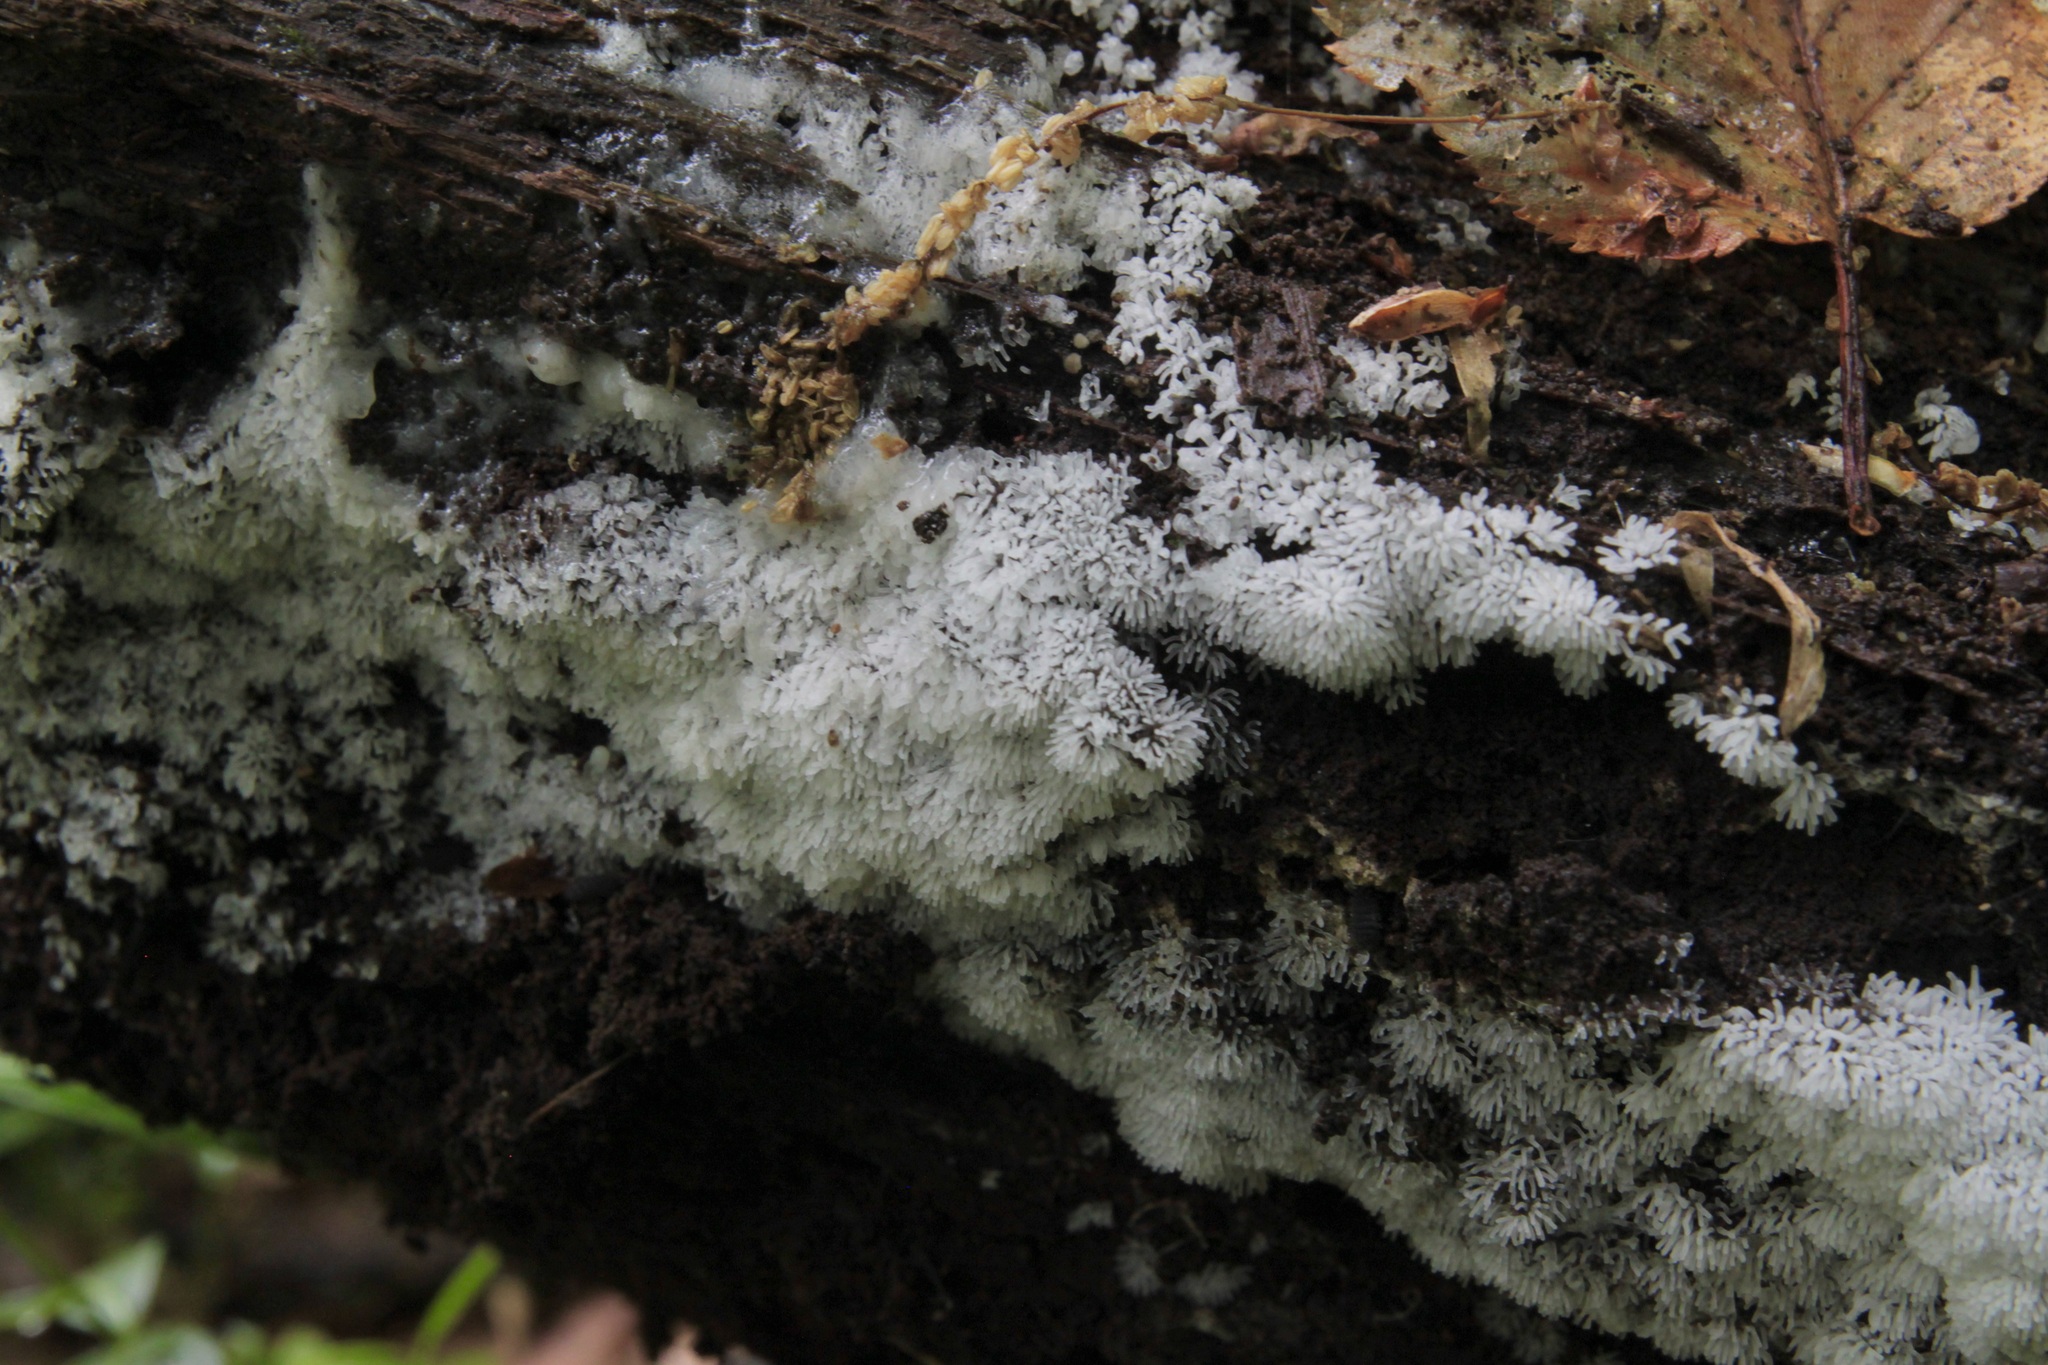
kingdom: Protozoa
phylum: Mycetozoa
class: Protosteliomycetes
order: Ceratiomyxales
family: Ceratiomyxaceae
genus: Ceratiomyxa
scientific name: Ceratiomyxa fruticulosa
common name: Honeycomb coral slime mold
